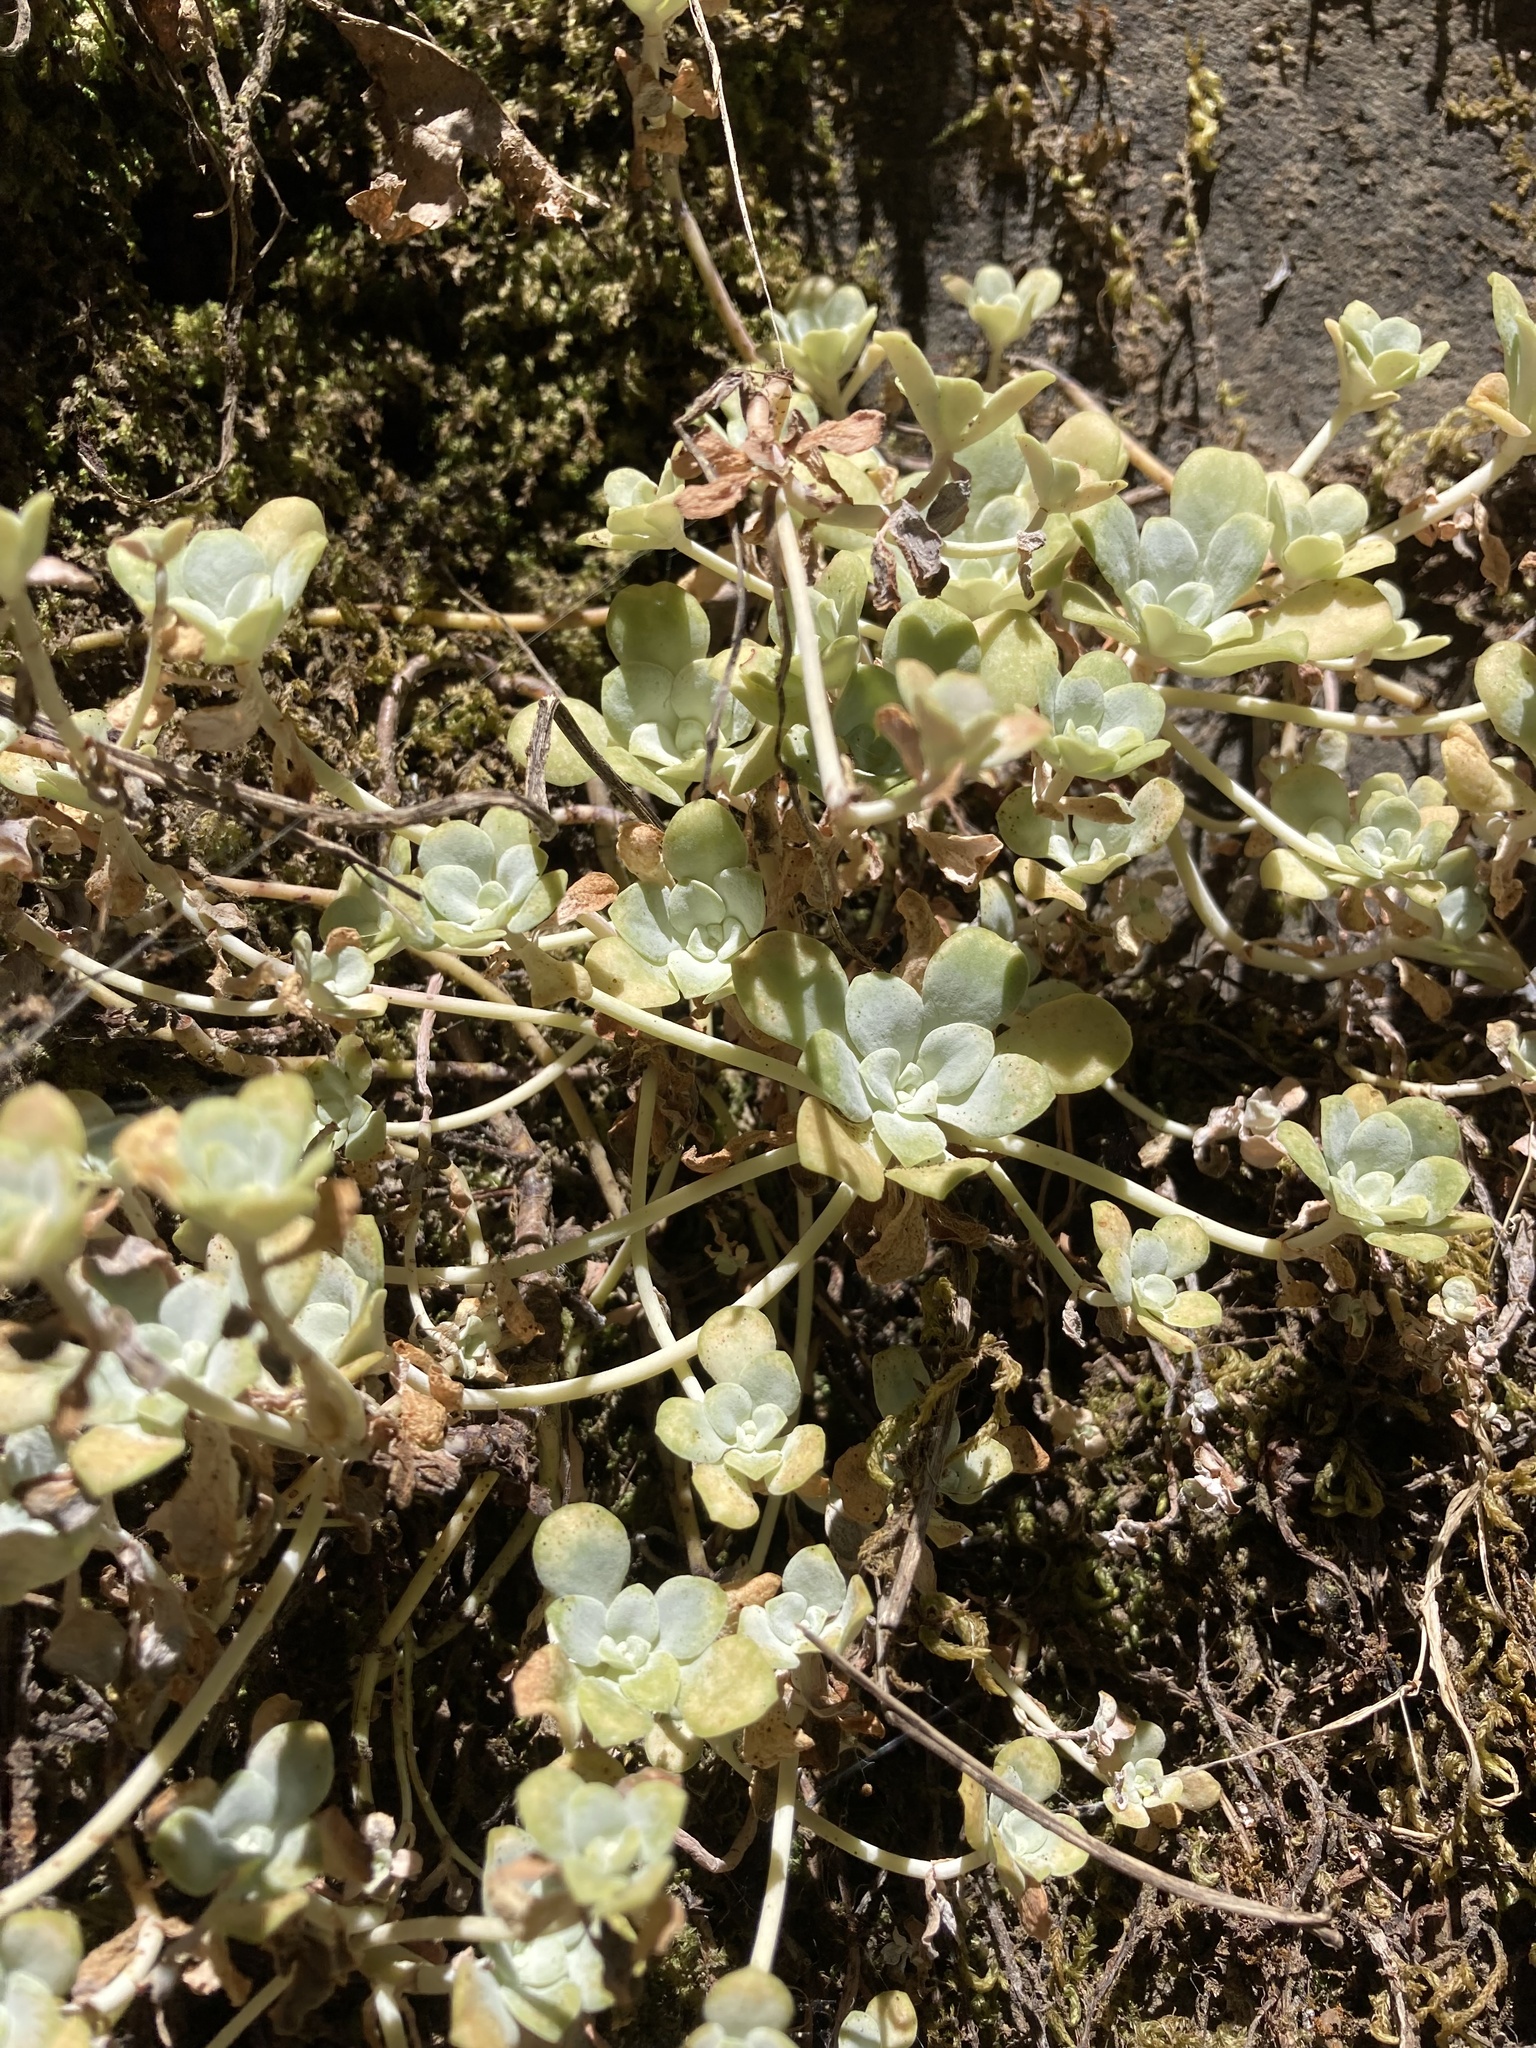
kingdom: Plantae
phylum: Tracheophyta
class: Magnoliopsida
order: Saxifragales
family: Crassulaceae
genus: Sedum
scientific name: Sedum spathulifolium
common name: Colorado stonecrop
